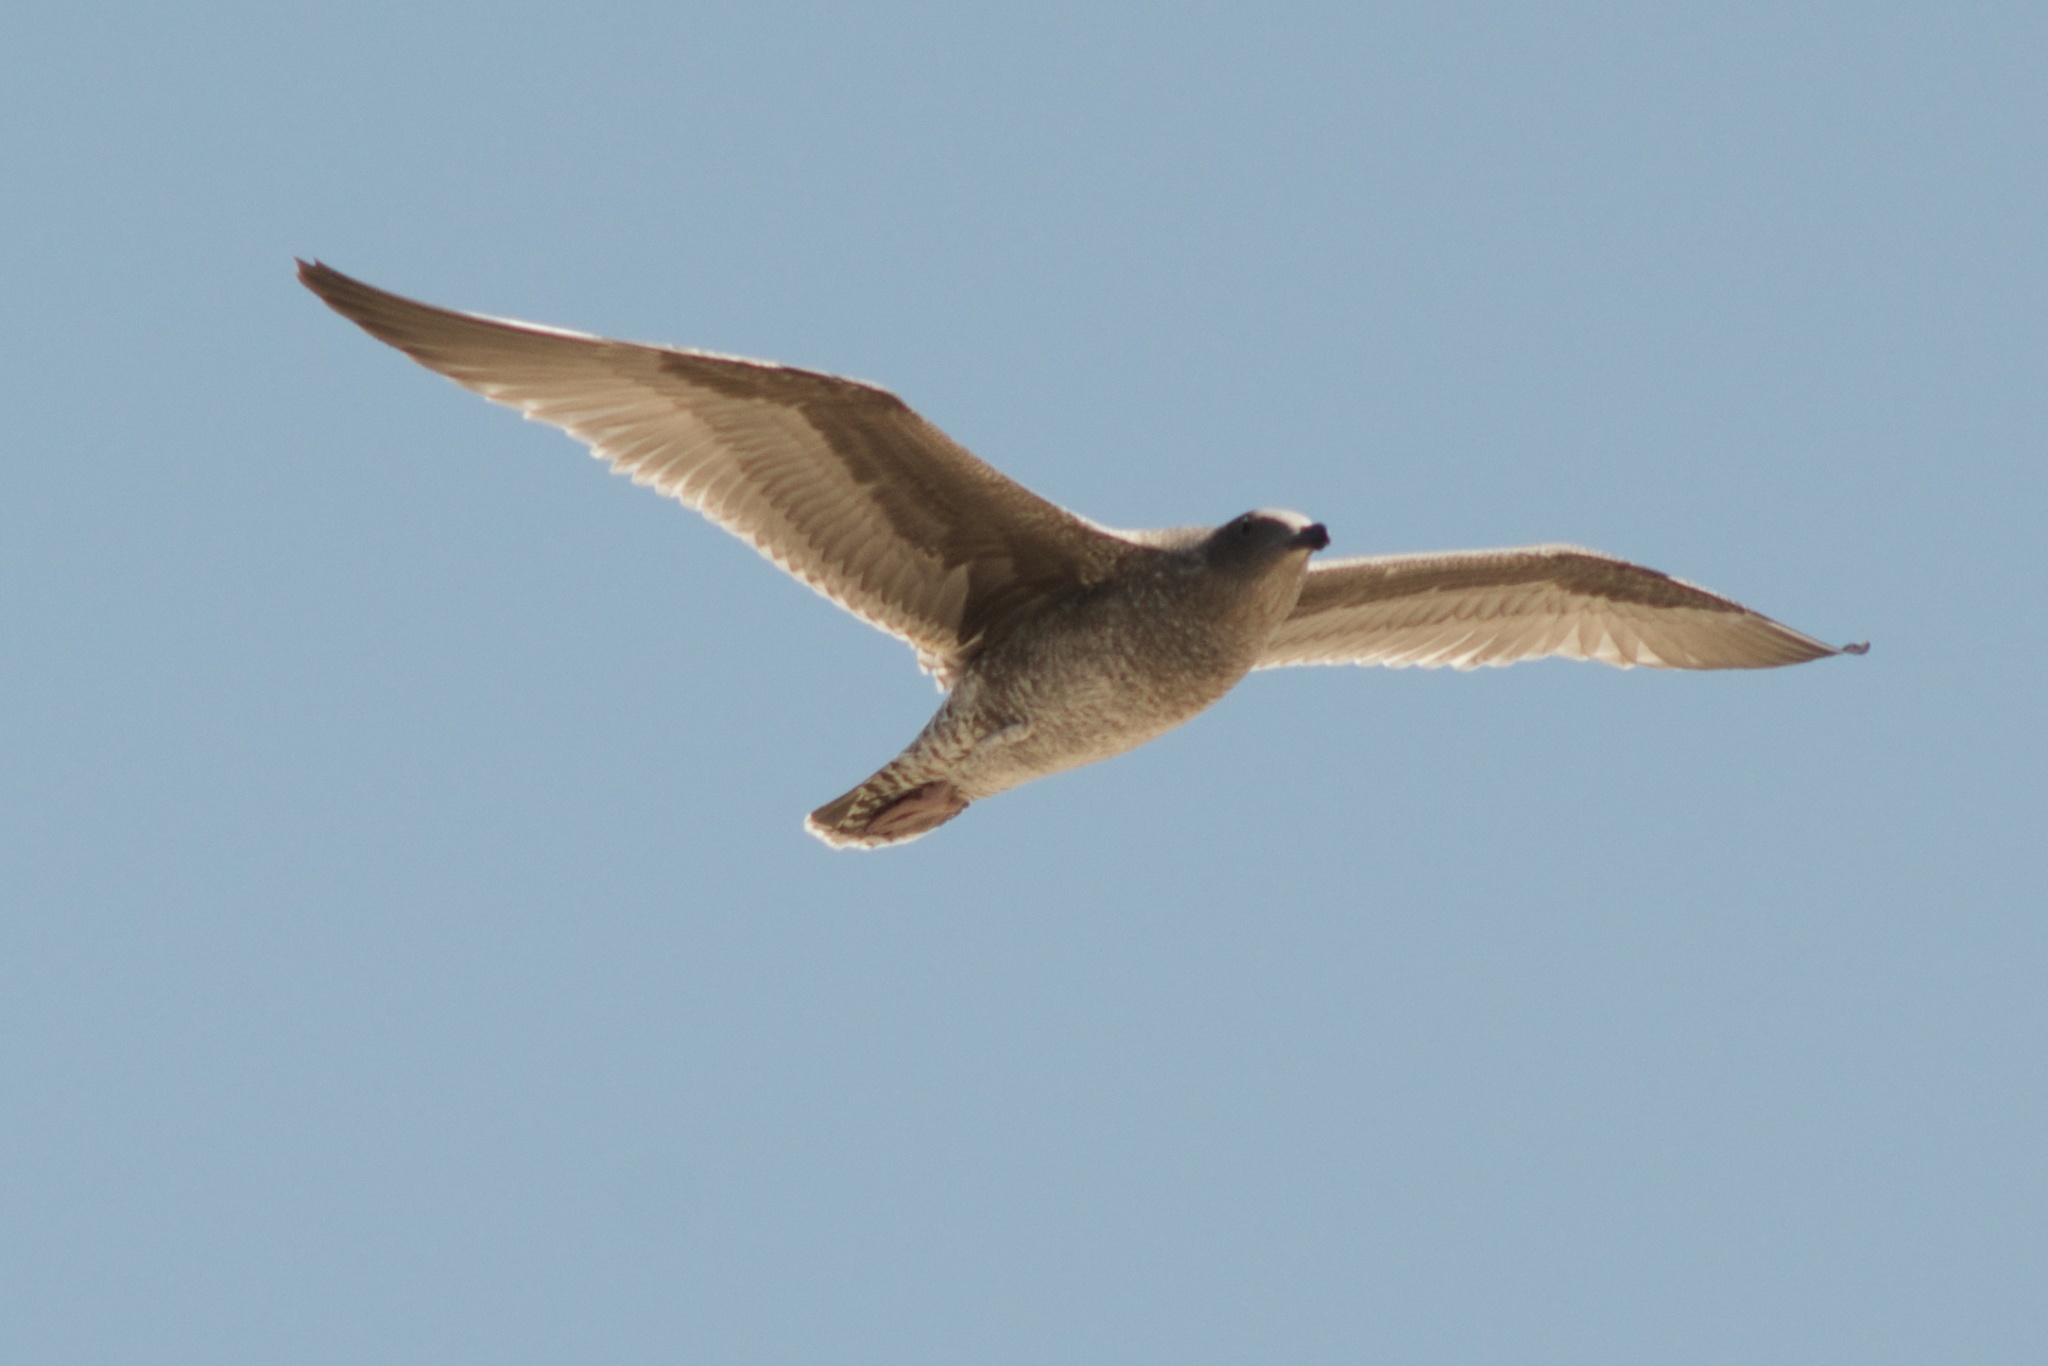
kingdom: Animalia
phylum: Chordata
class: Aves
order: Charadriiformes
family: Laridae
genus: Larus
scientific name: Larus occidentalis
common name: Western gull
